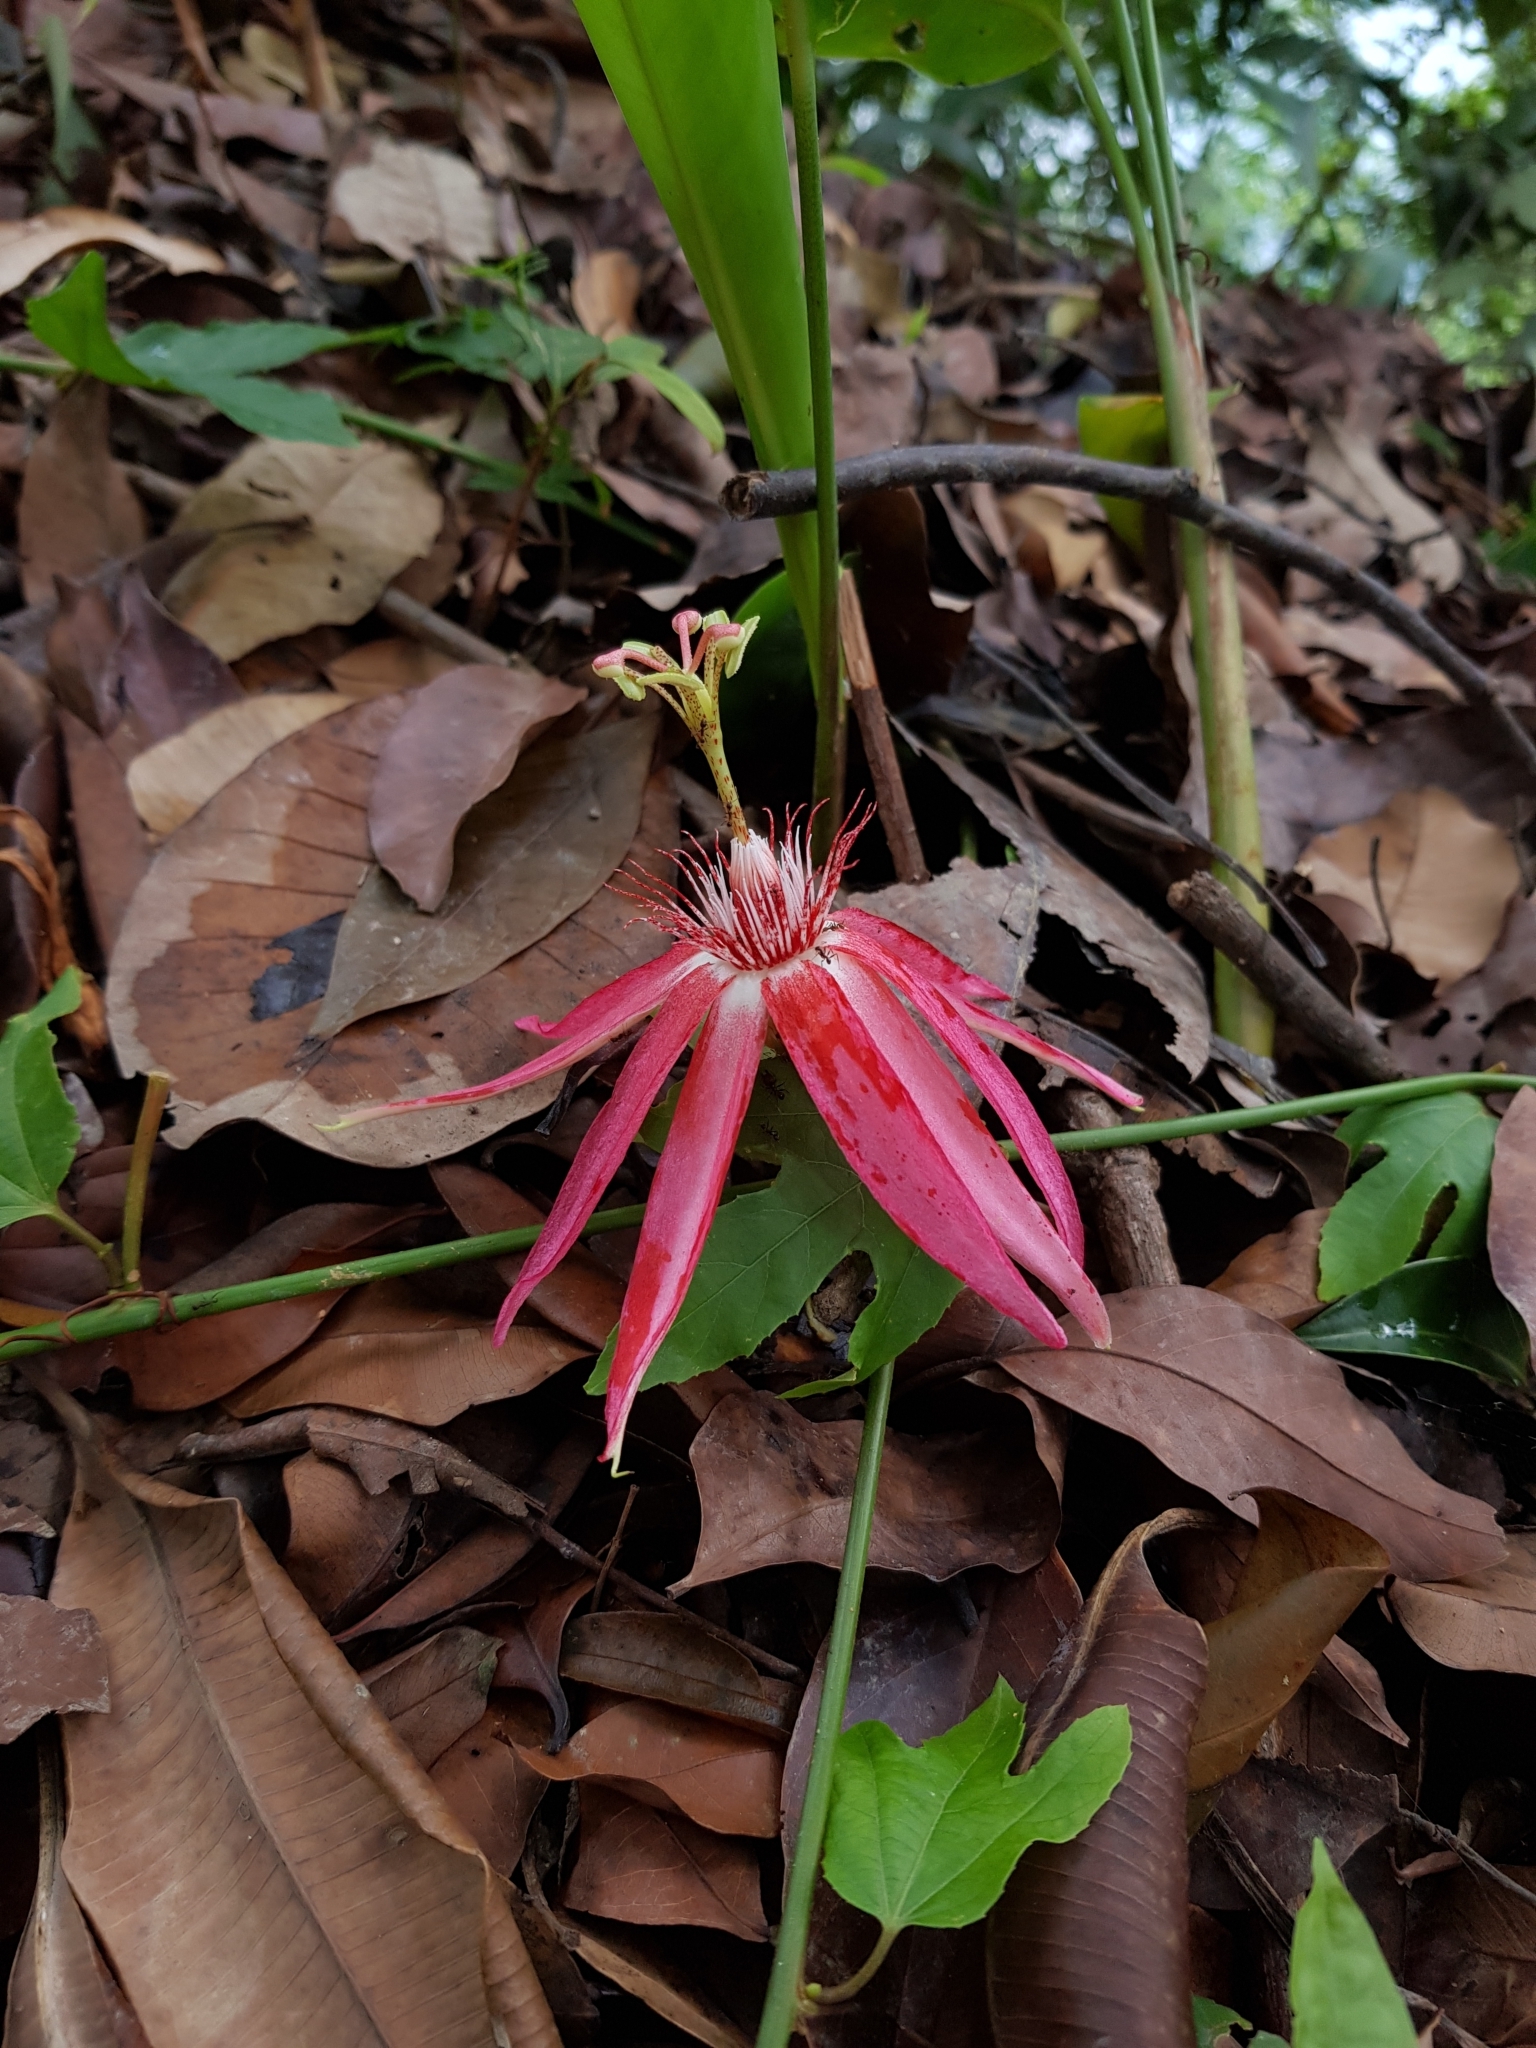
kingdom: Plantae
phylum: Tracheophyta
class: Magnoliopsida
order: Malpighiales
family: Passifloraceae
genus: Passiflora
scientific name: Passiflora quadriglandulosa
